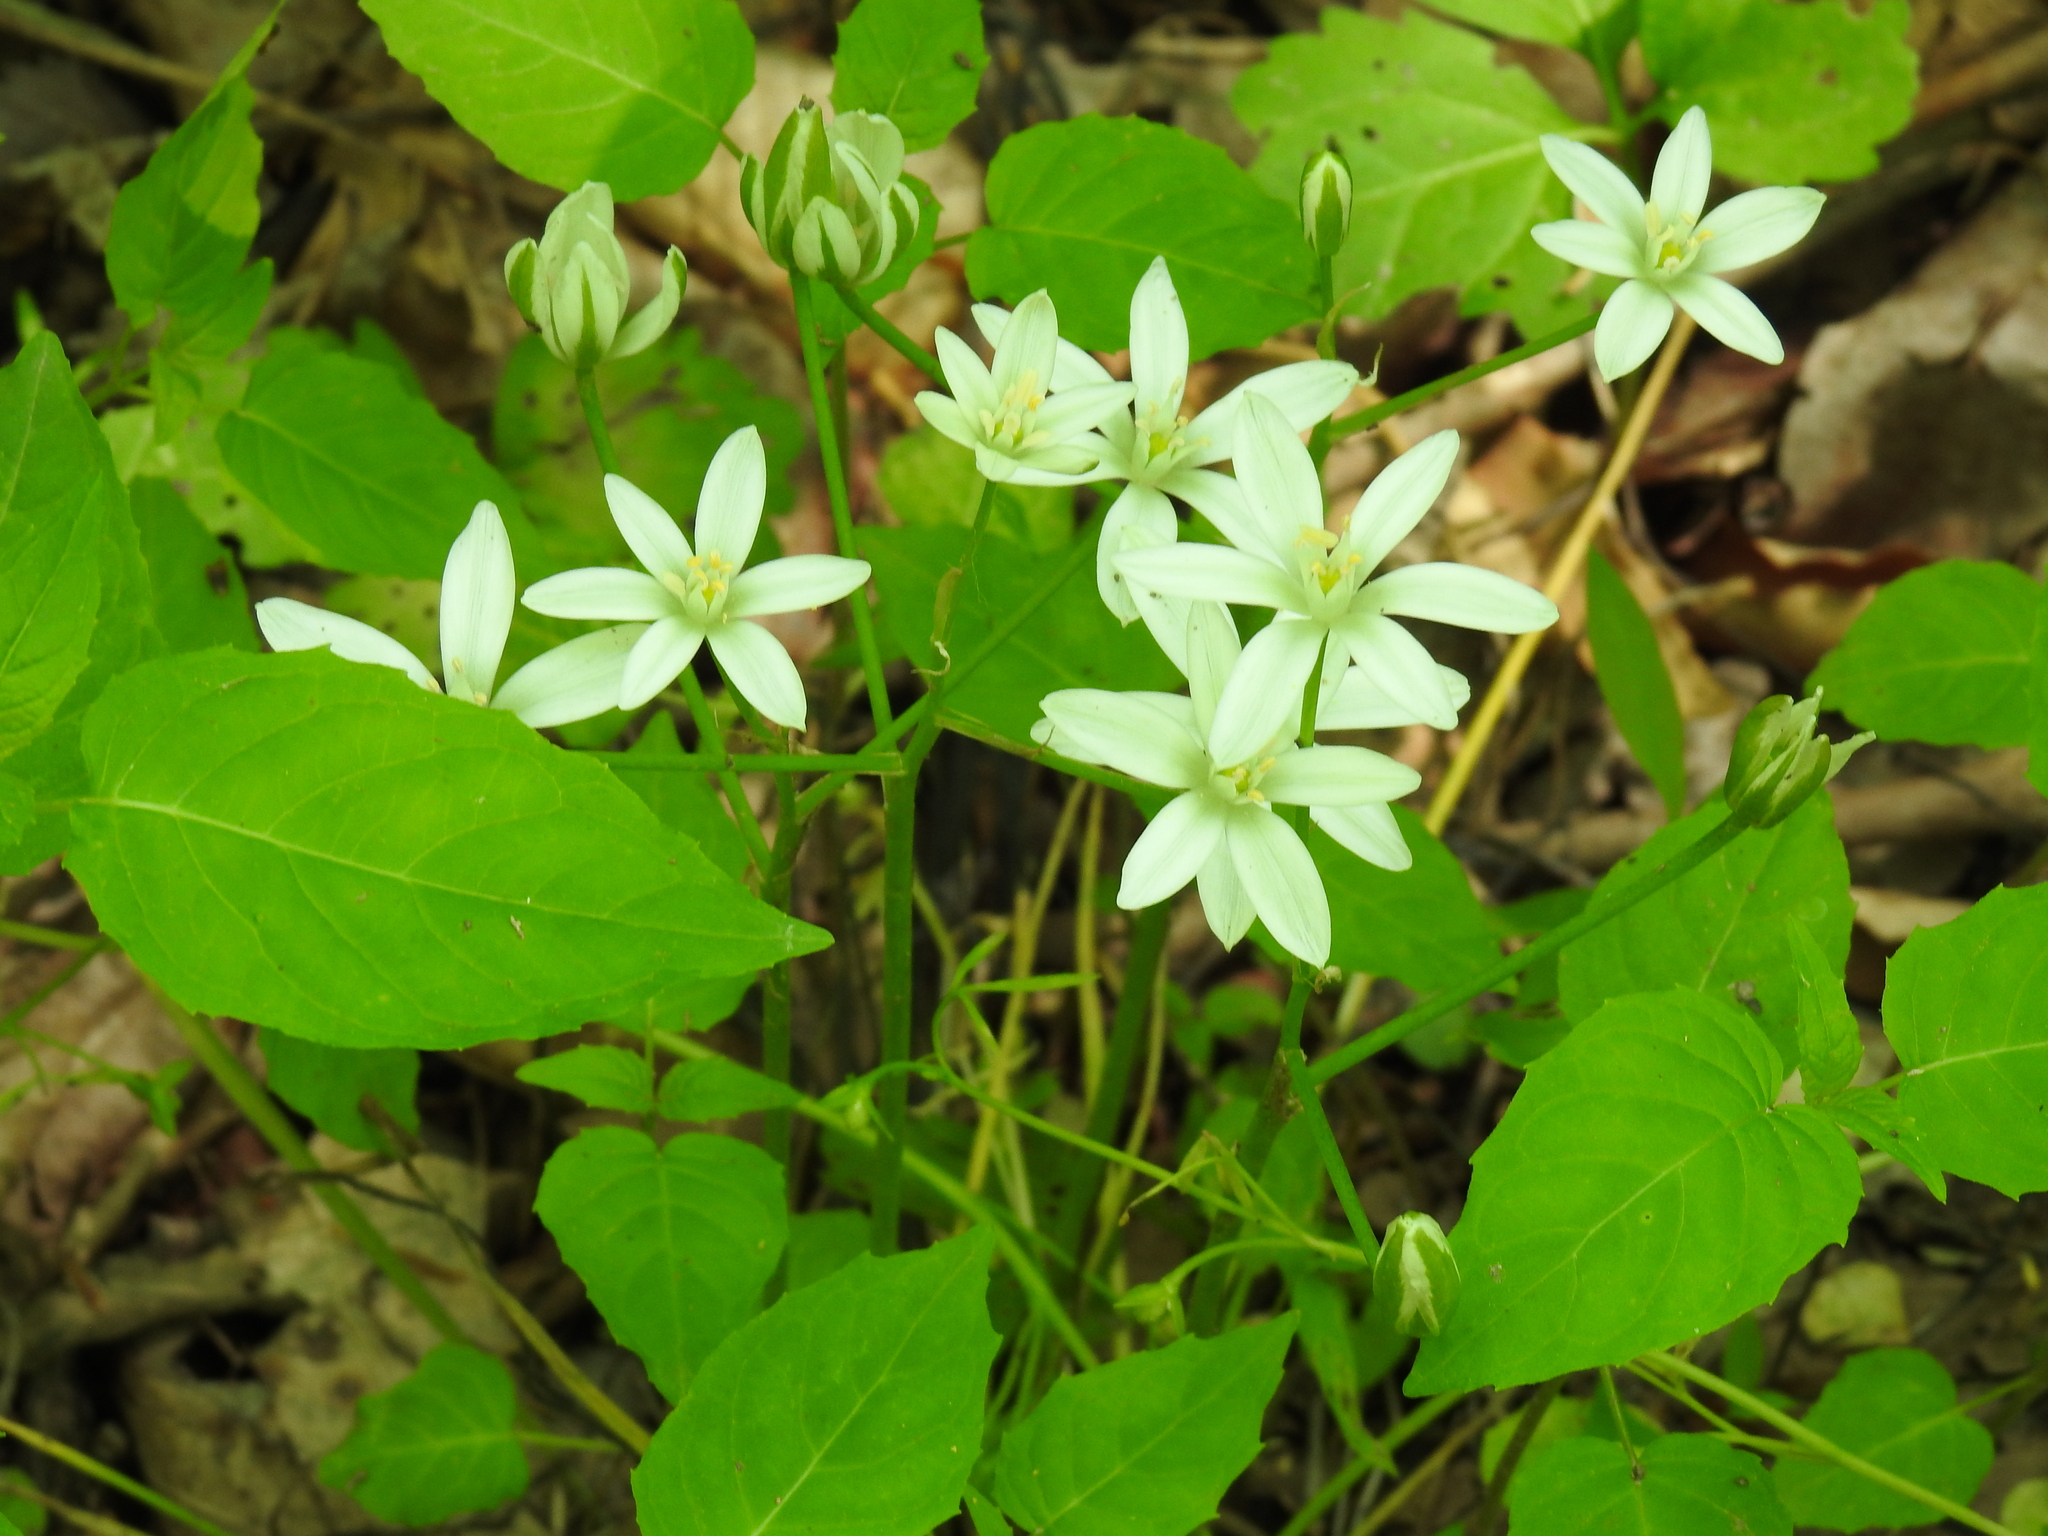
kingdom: Plantae
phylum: Tracheophyta
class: Liliopsida
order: Asparagales
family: Asparagaceae
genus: Ornithogalum
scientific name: Ornithogalum umbellatum
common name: Garden star-of-bethlehem
